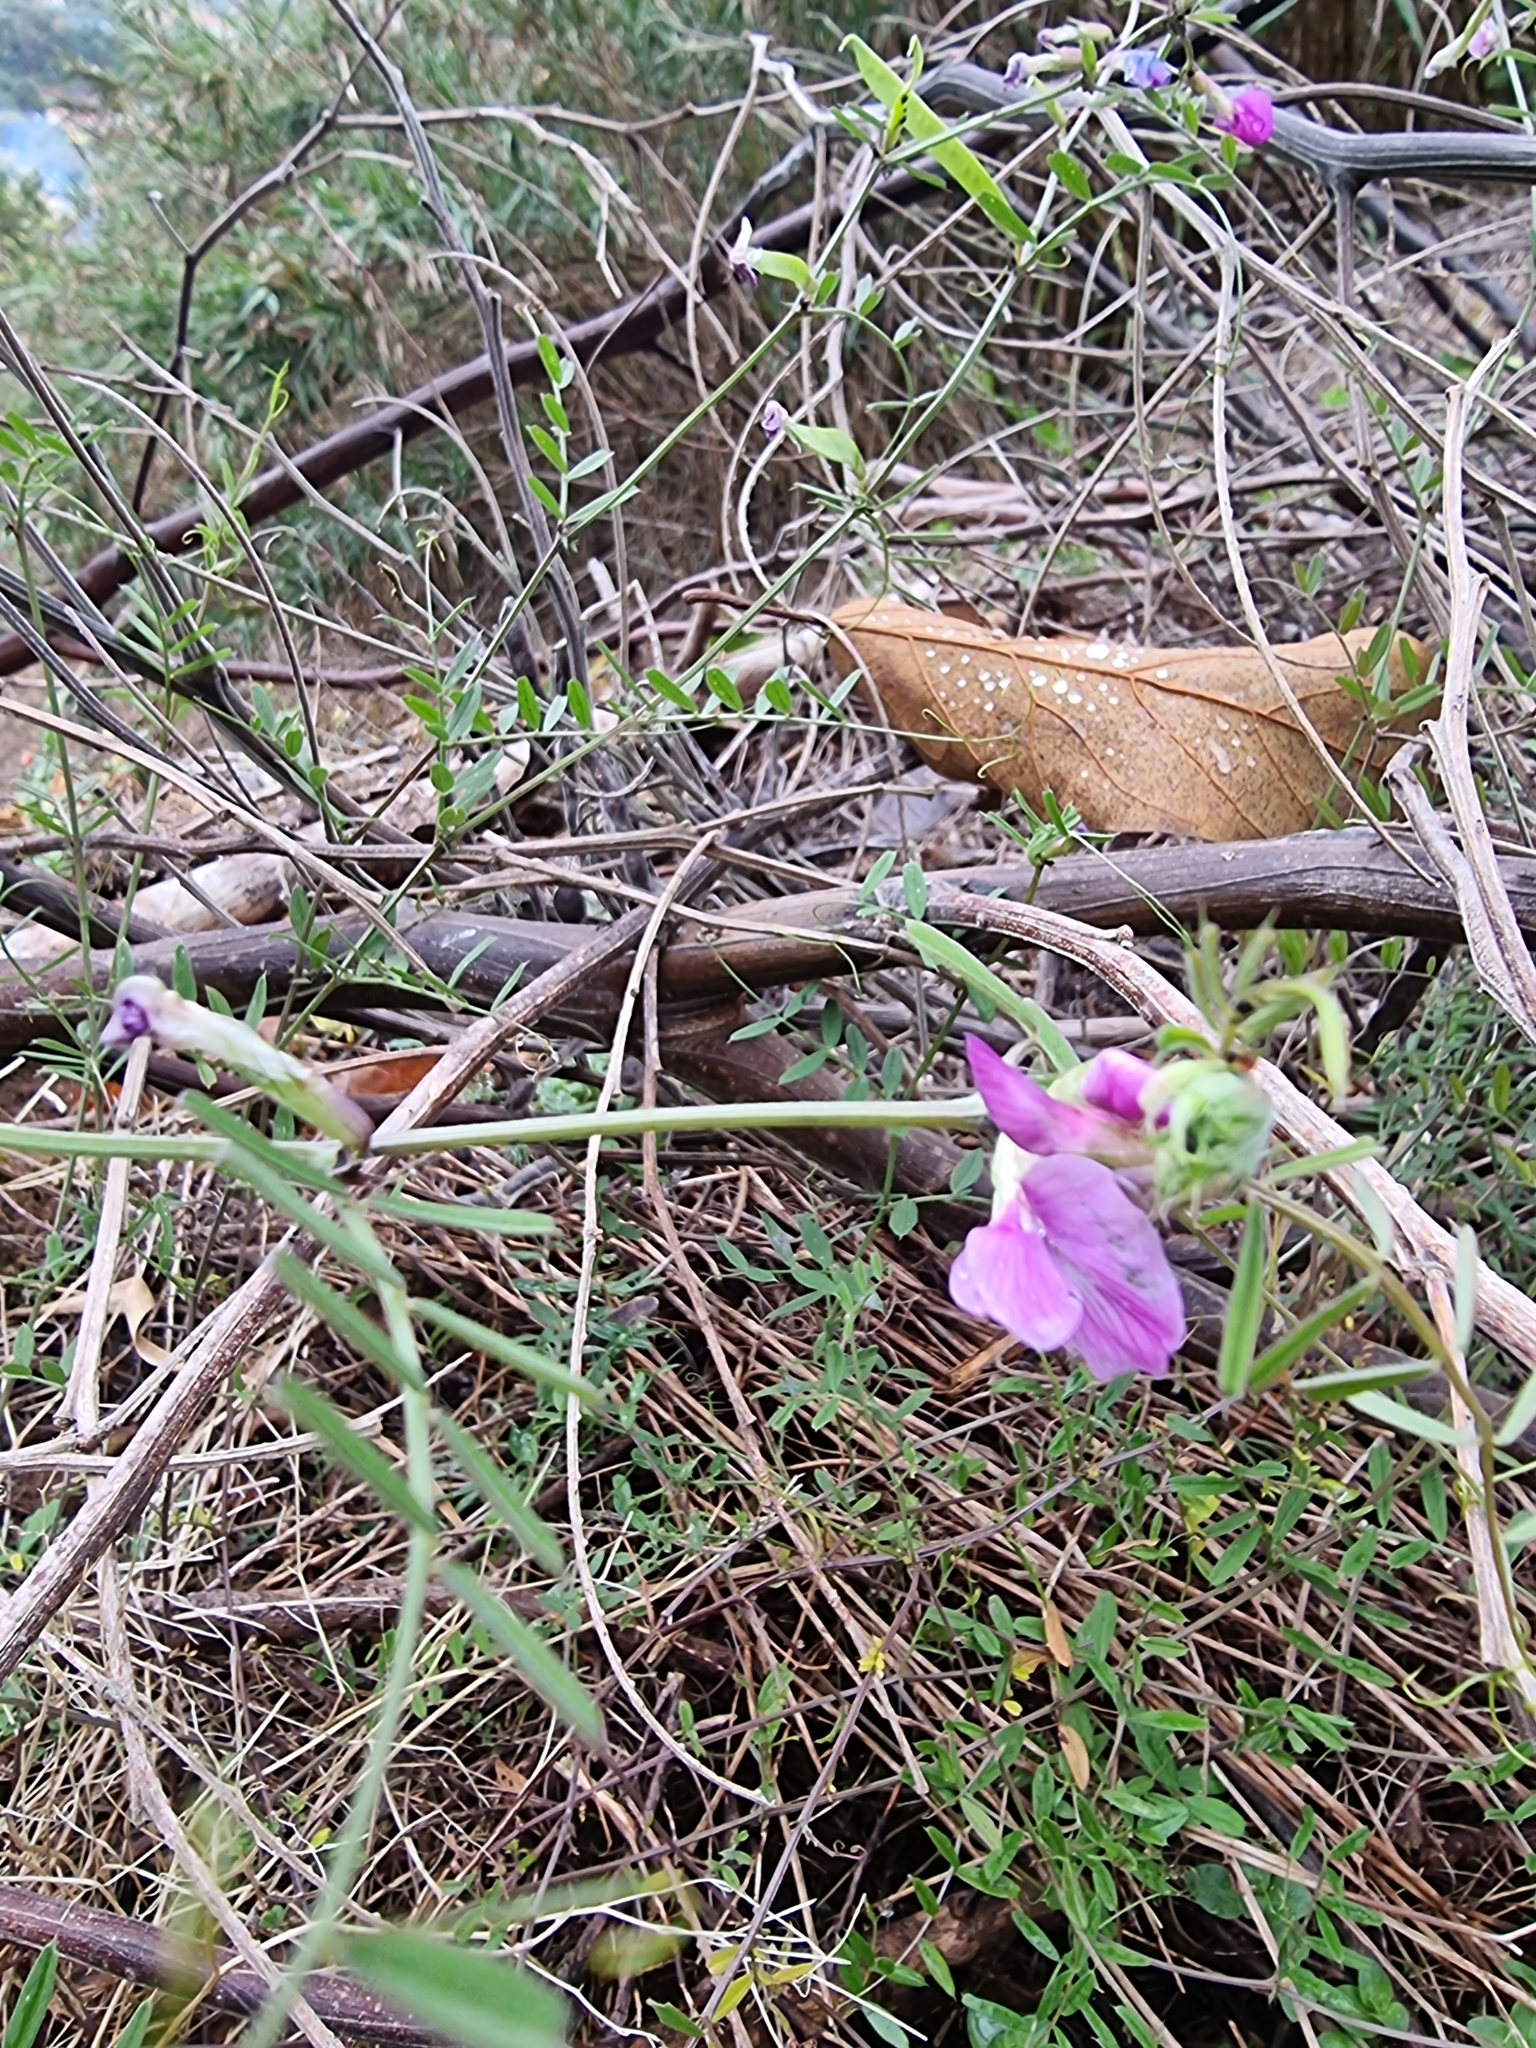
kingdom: Plantae
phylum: Tracheophyta
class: Magnoliopsida
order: Fabales
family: Fabaceae
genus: Vicia
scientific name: Vicia sativa
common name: Garden vetch
